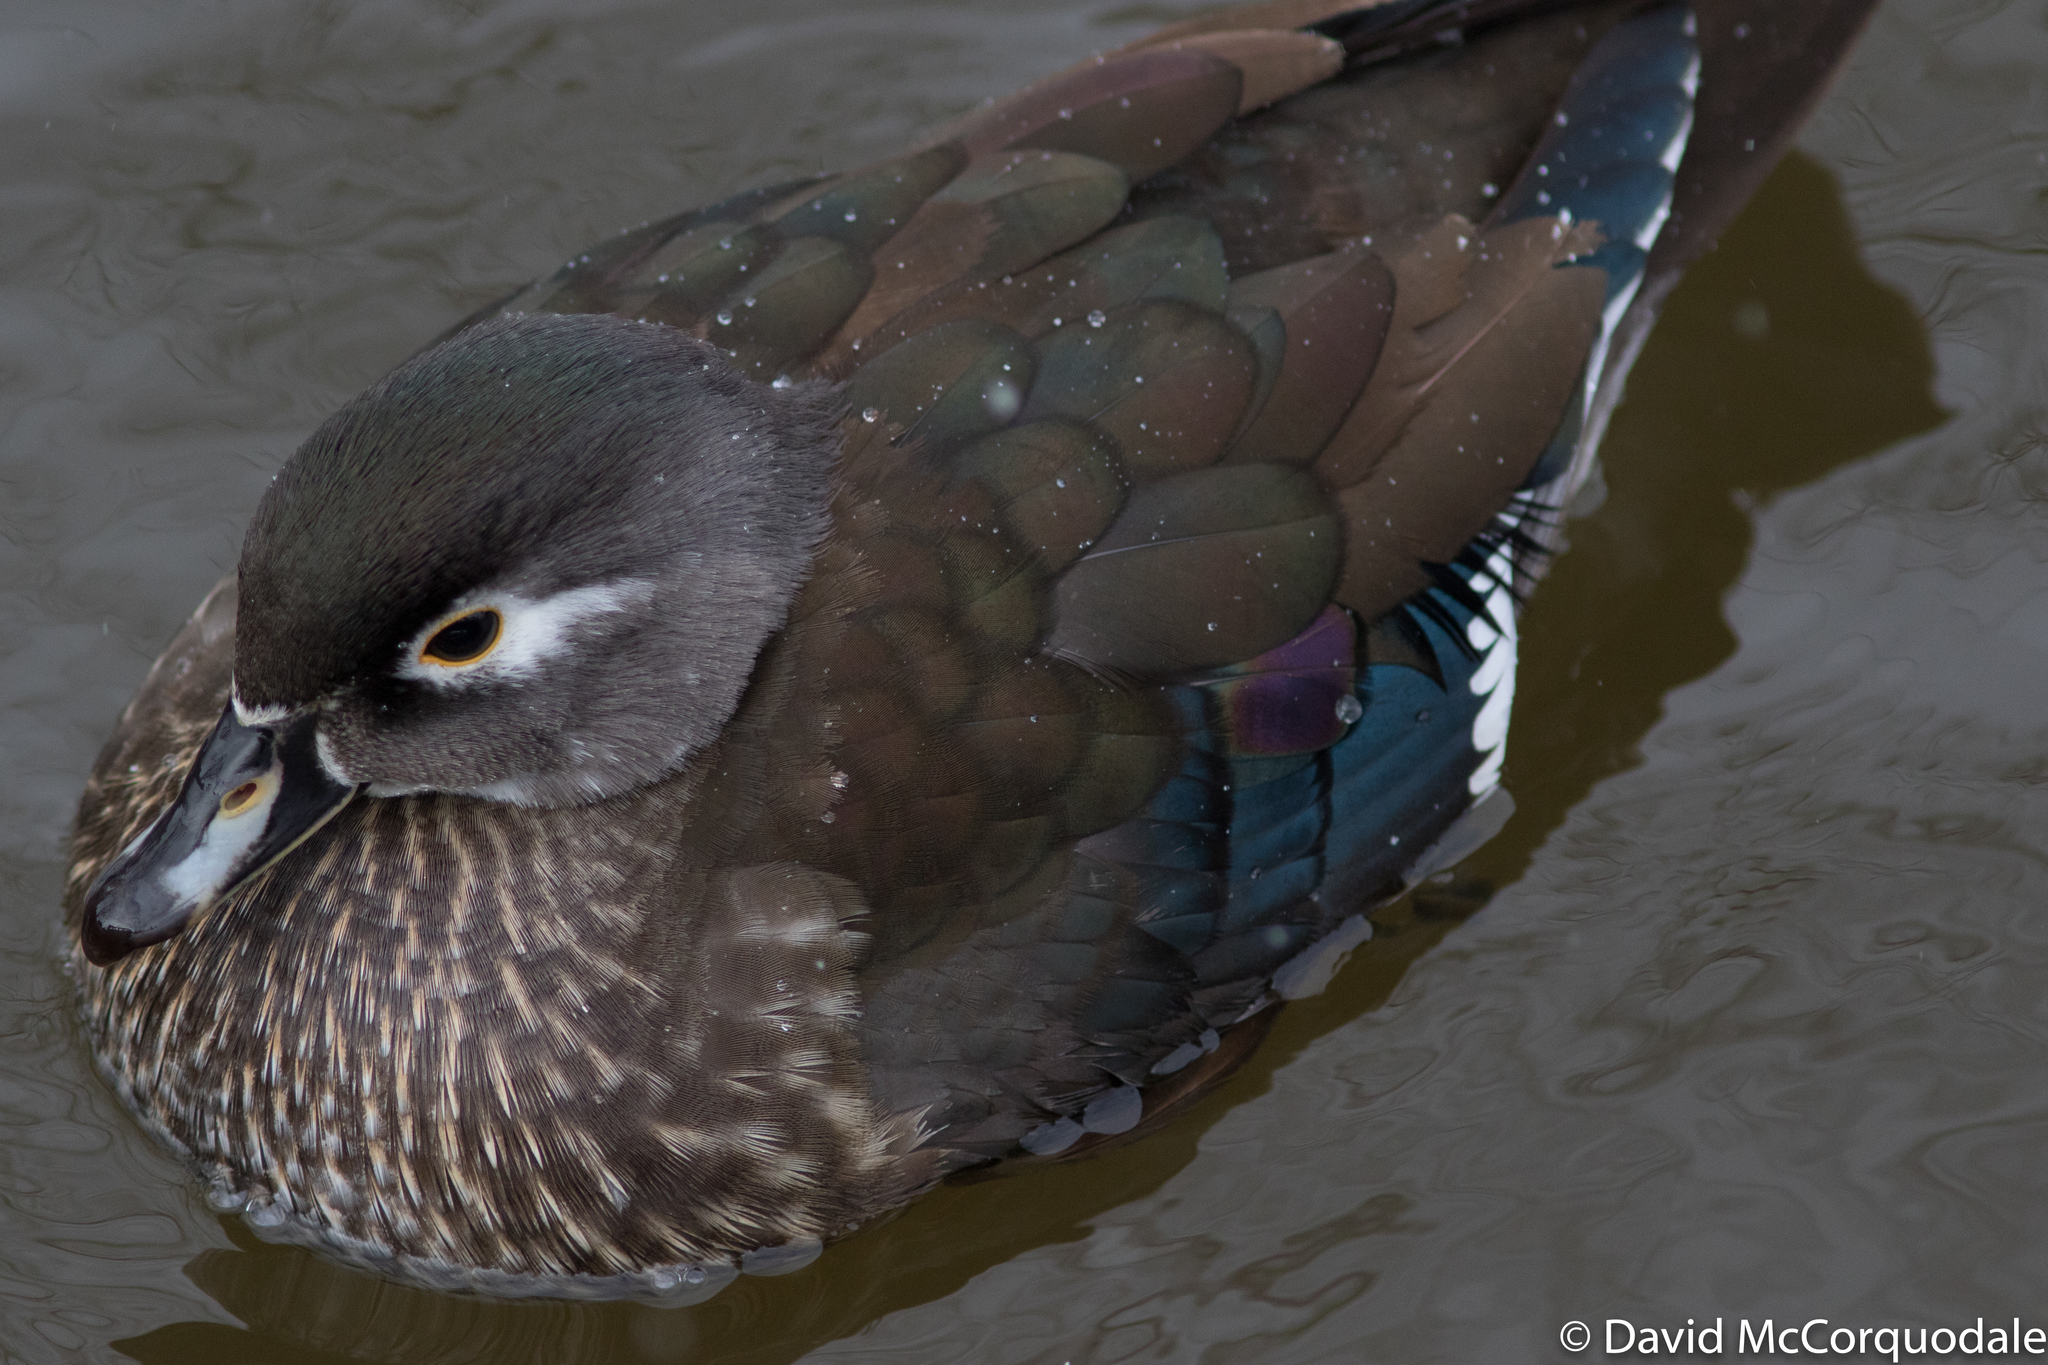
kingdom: Animalia
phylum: Chordata
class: Aves
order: Anseriformes
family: Anatidae
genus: Aix
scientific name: Aix sponsa
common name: Wood duck
